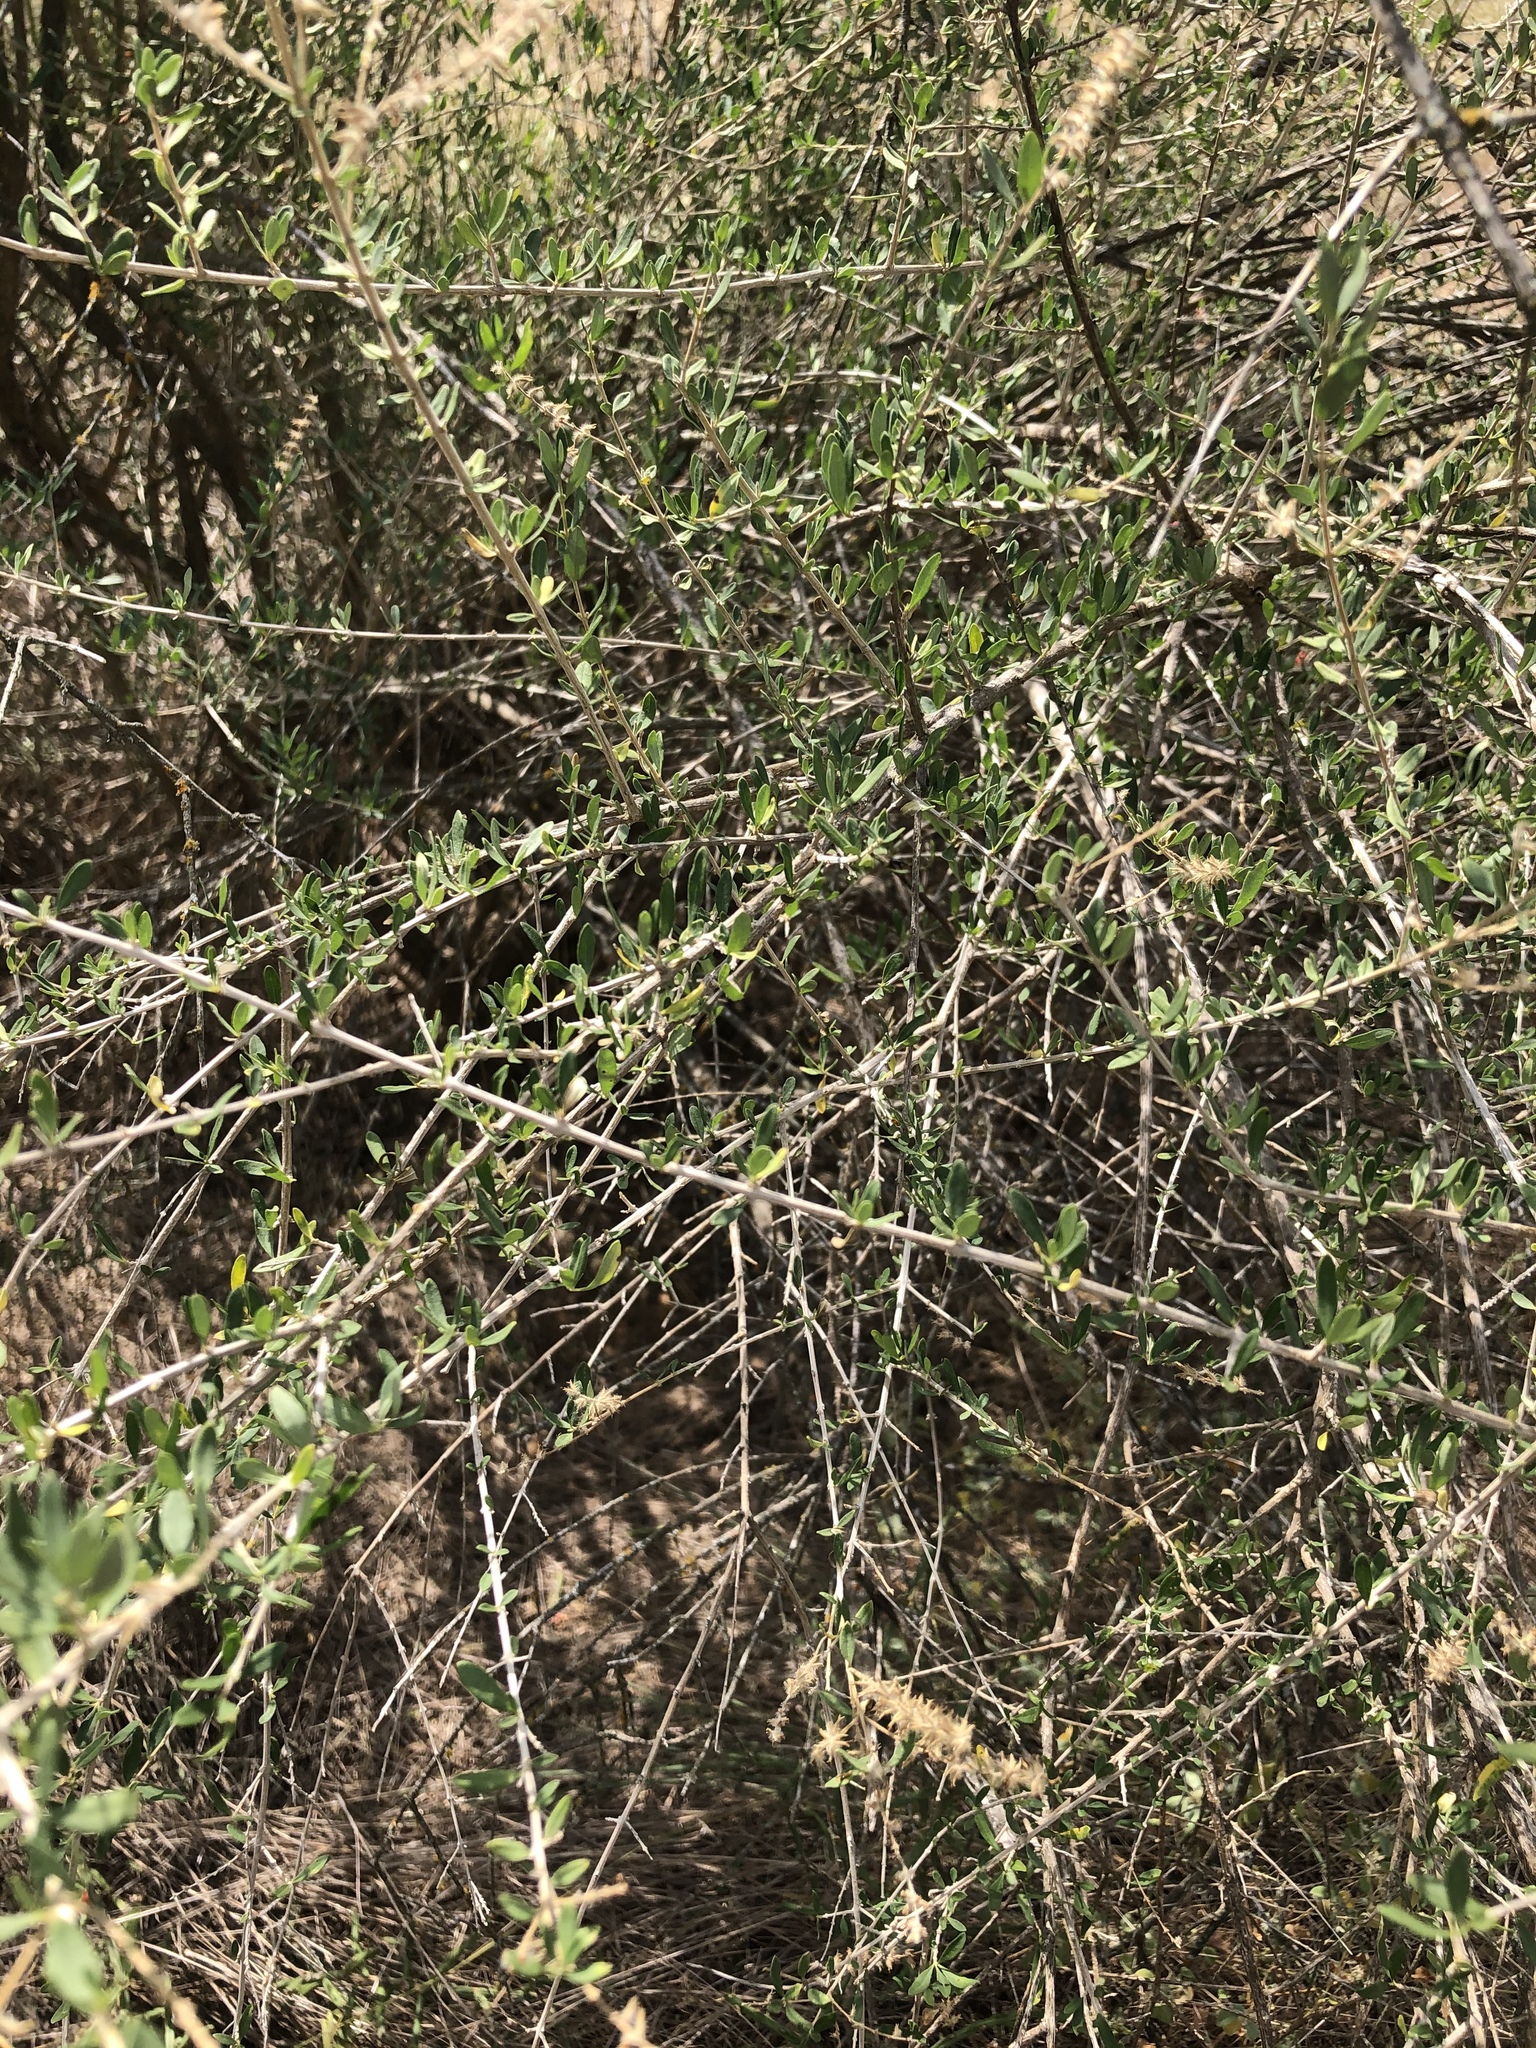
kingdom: Plantae
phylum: Tracheophyta
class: Magnoliopsida
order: Lamiales
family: Verbenaceae
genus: Aloysia
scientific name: Aloysia gratissima
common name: Common bee-brush
